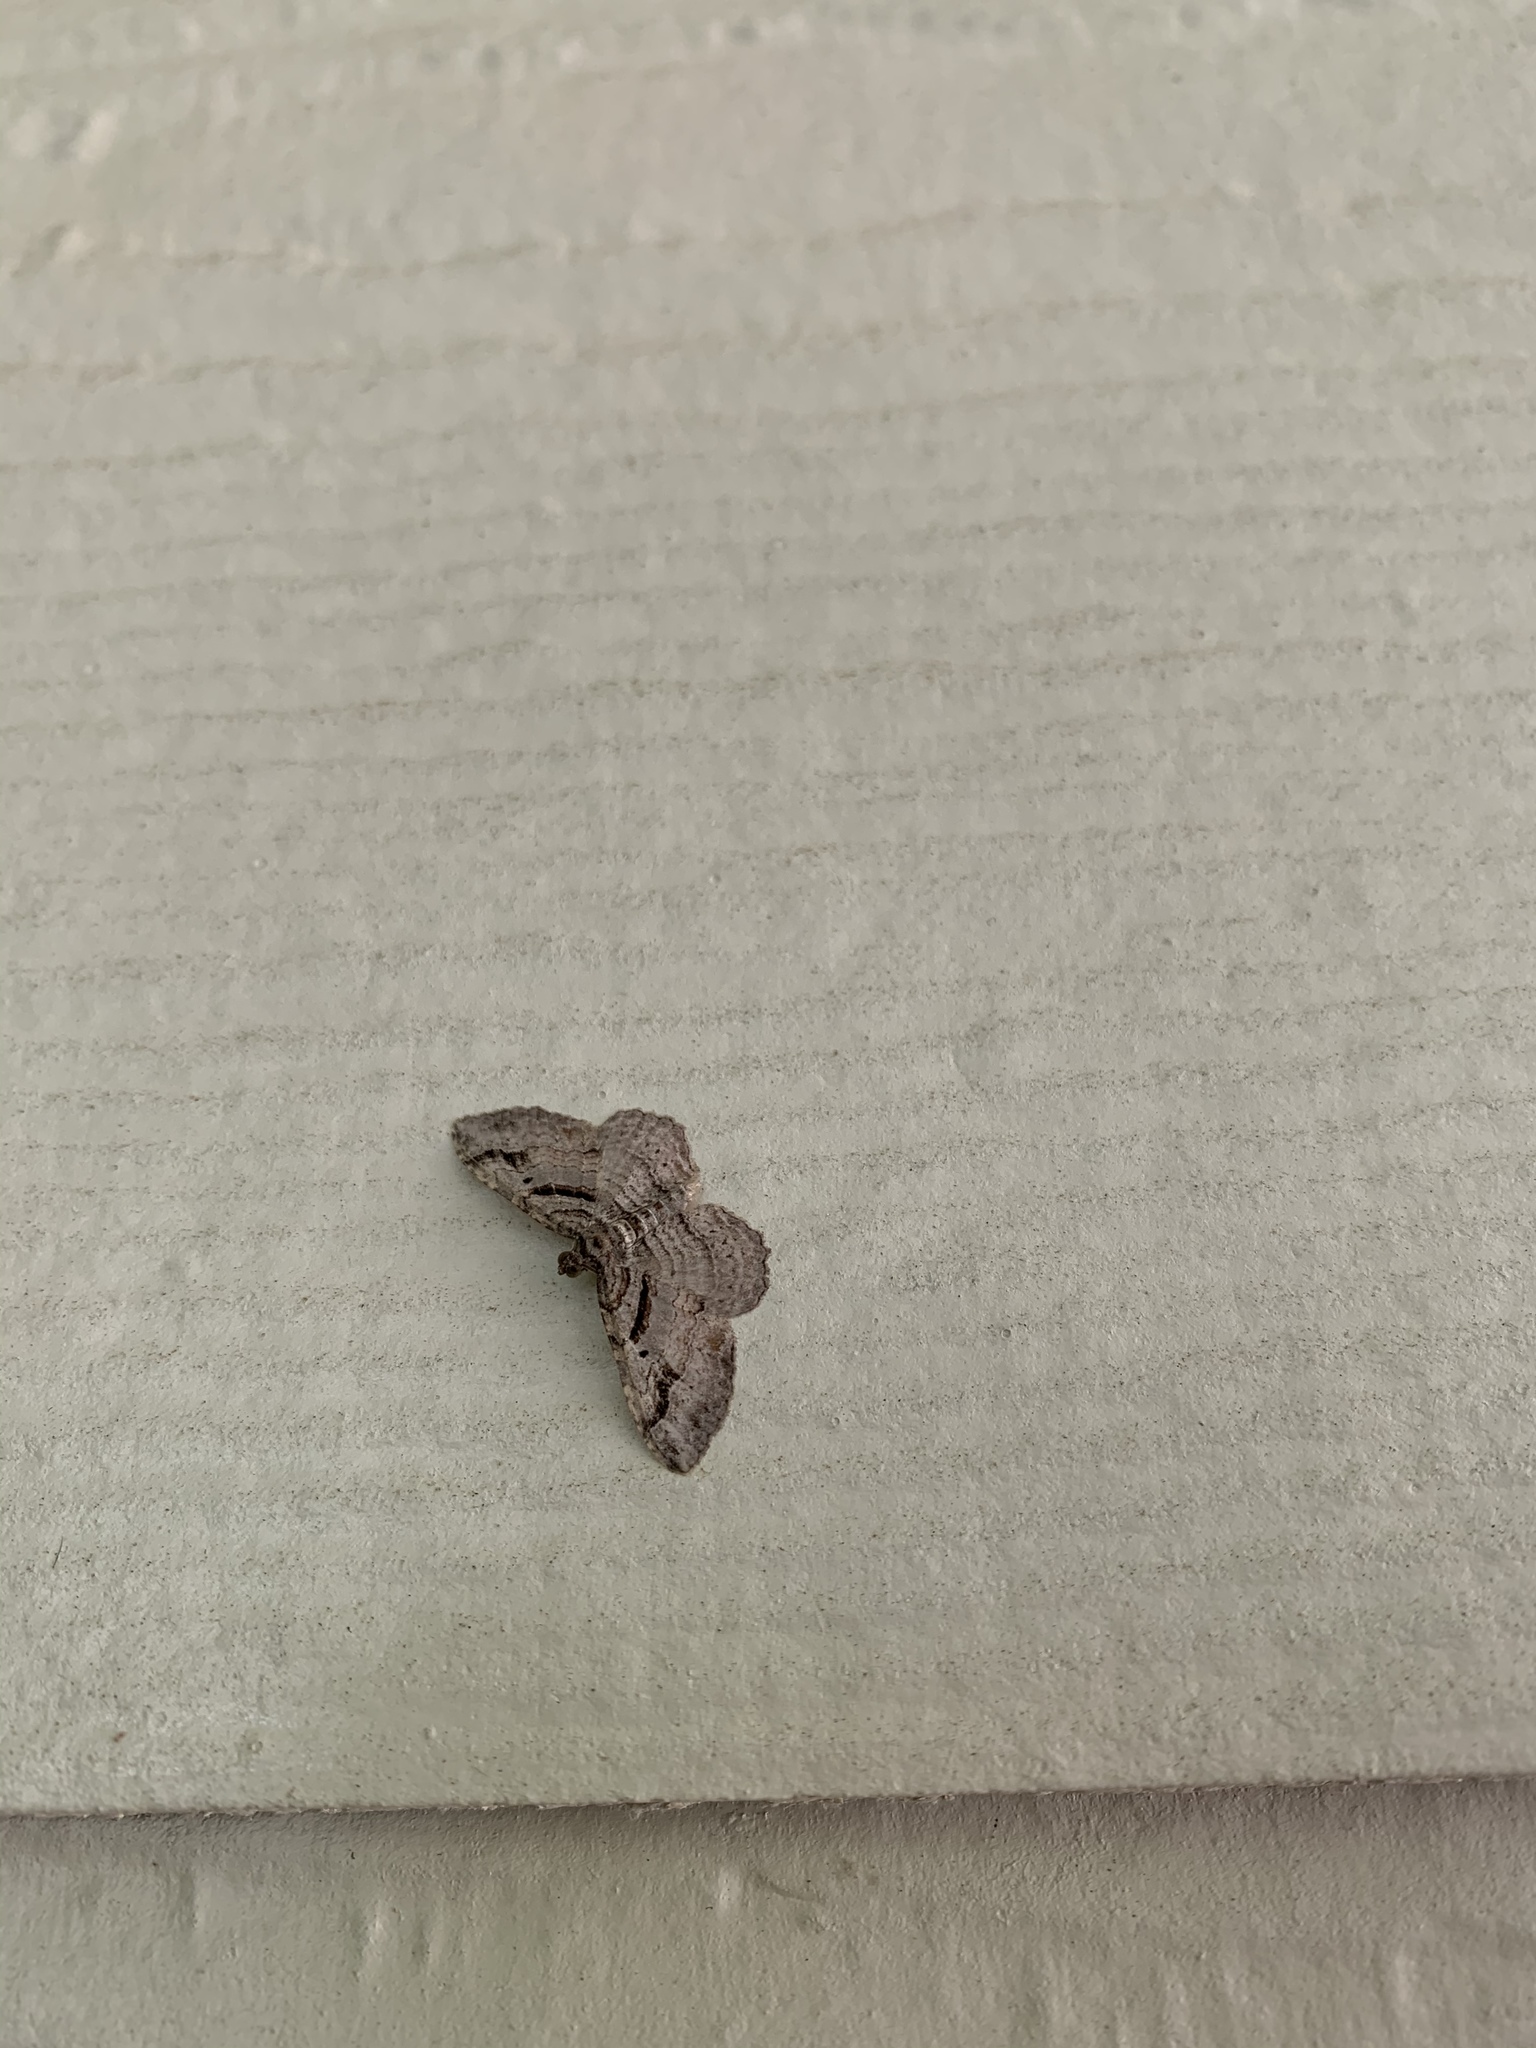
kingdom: Animalia
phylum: Arthropoda
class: Insecta
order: Lepidoptera
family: Geometridae
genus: Costaconvexa
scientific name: Costaconvexa centrostrigaria
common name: Bent-line carpet
